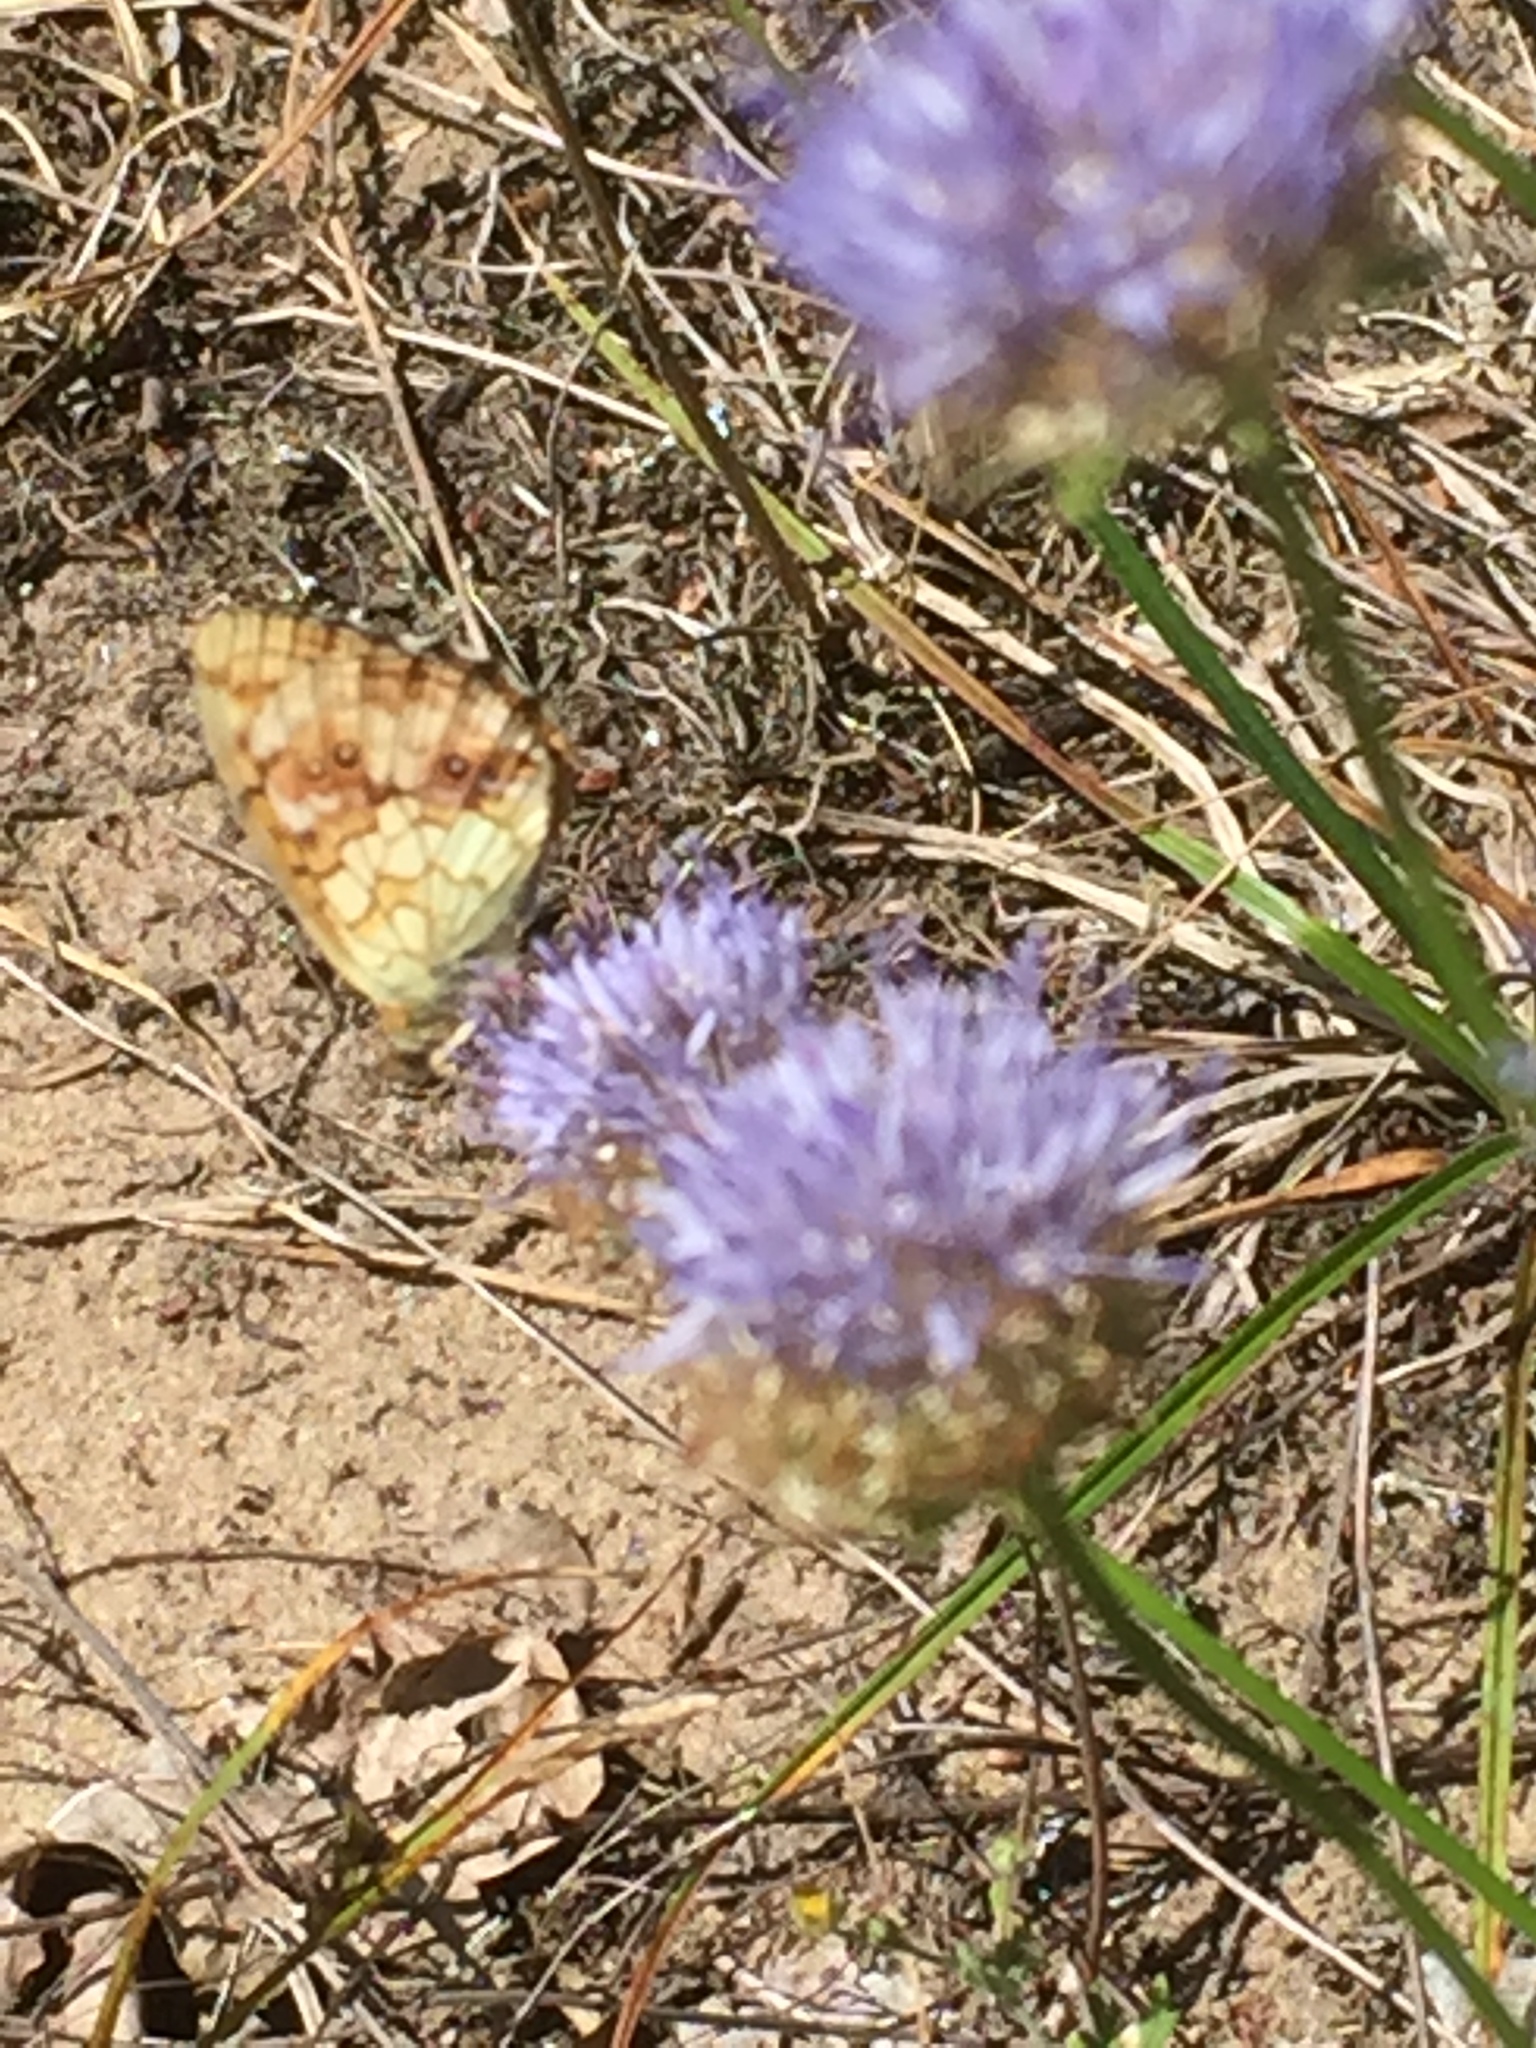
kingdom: Animalia
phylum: Arthropoda
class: Insecta
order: Lepidoptera
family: Nymphalidae
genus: Brenthis
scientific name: Brenthis ino
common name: Lesser marbled fritillary
